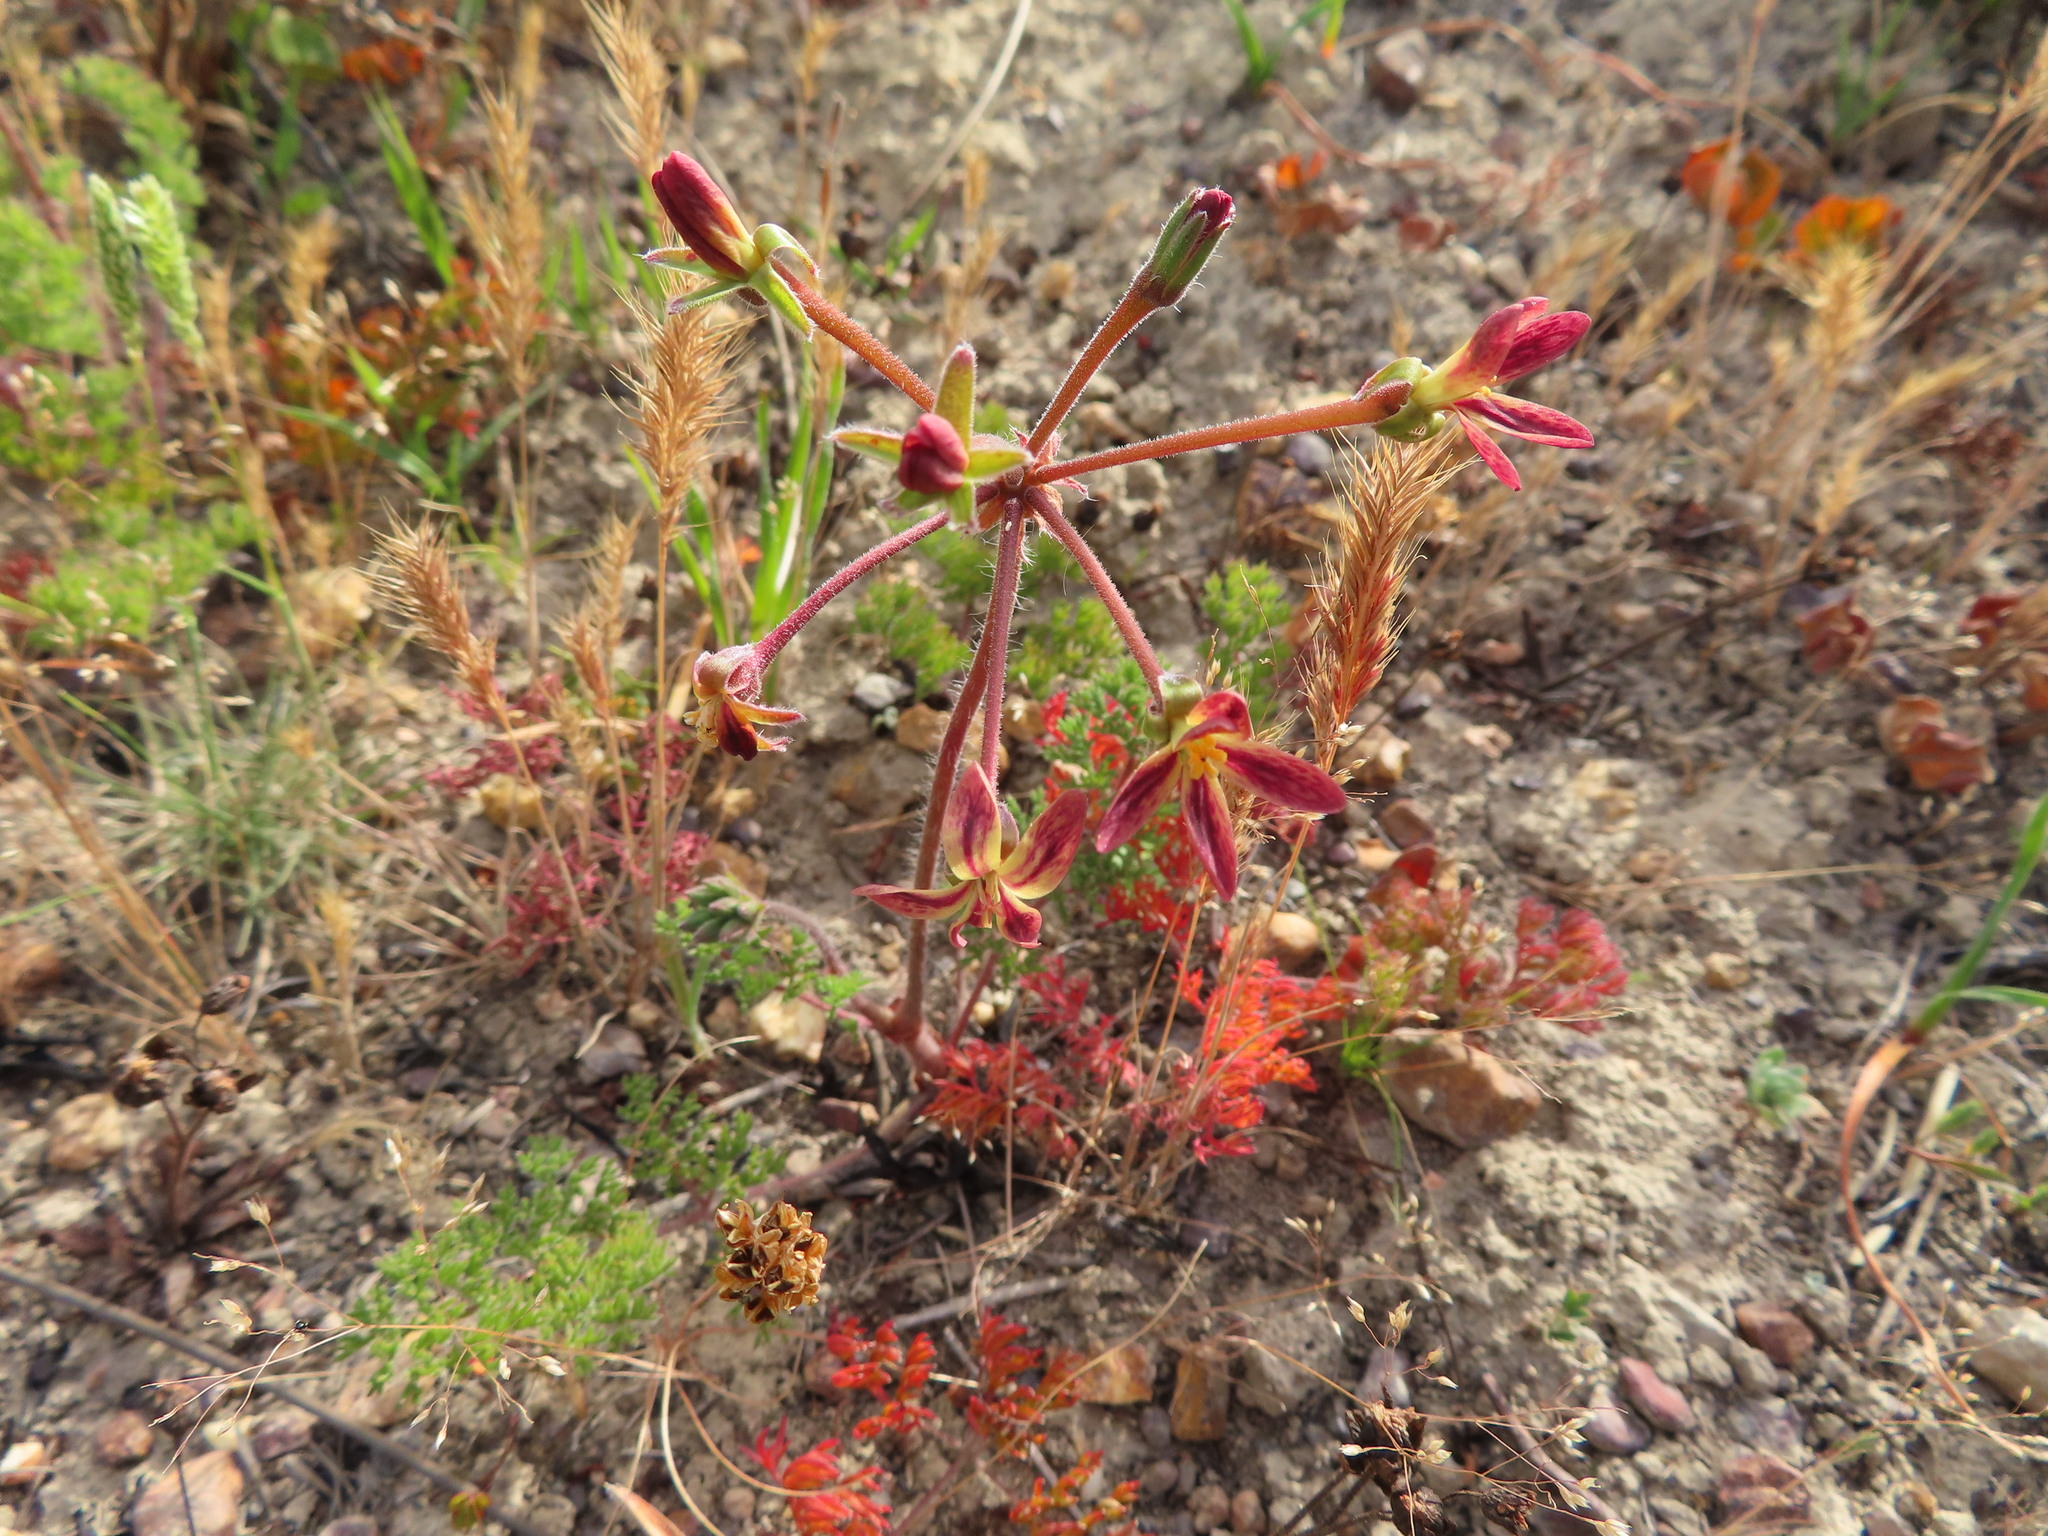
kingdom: Plantae
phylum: Tracheophyta
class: Magnoliopsida
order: Geraniales
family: Geraniaceae
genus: Pelargonium
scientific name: Pelargonium triste
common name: Night-scent pelargonium
